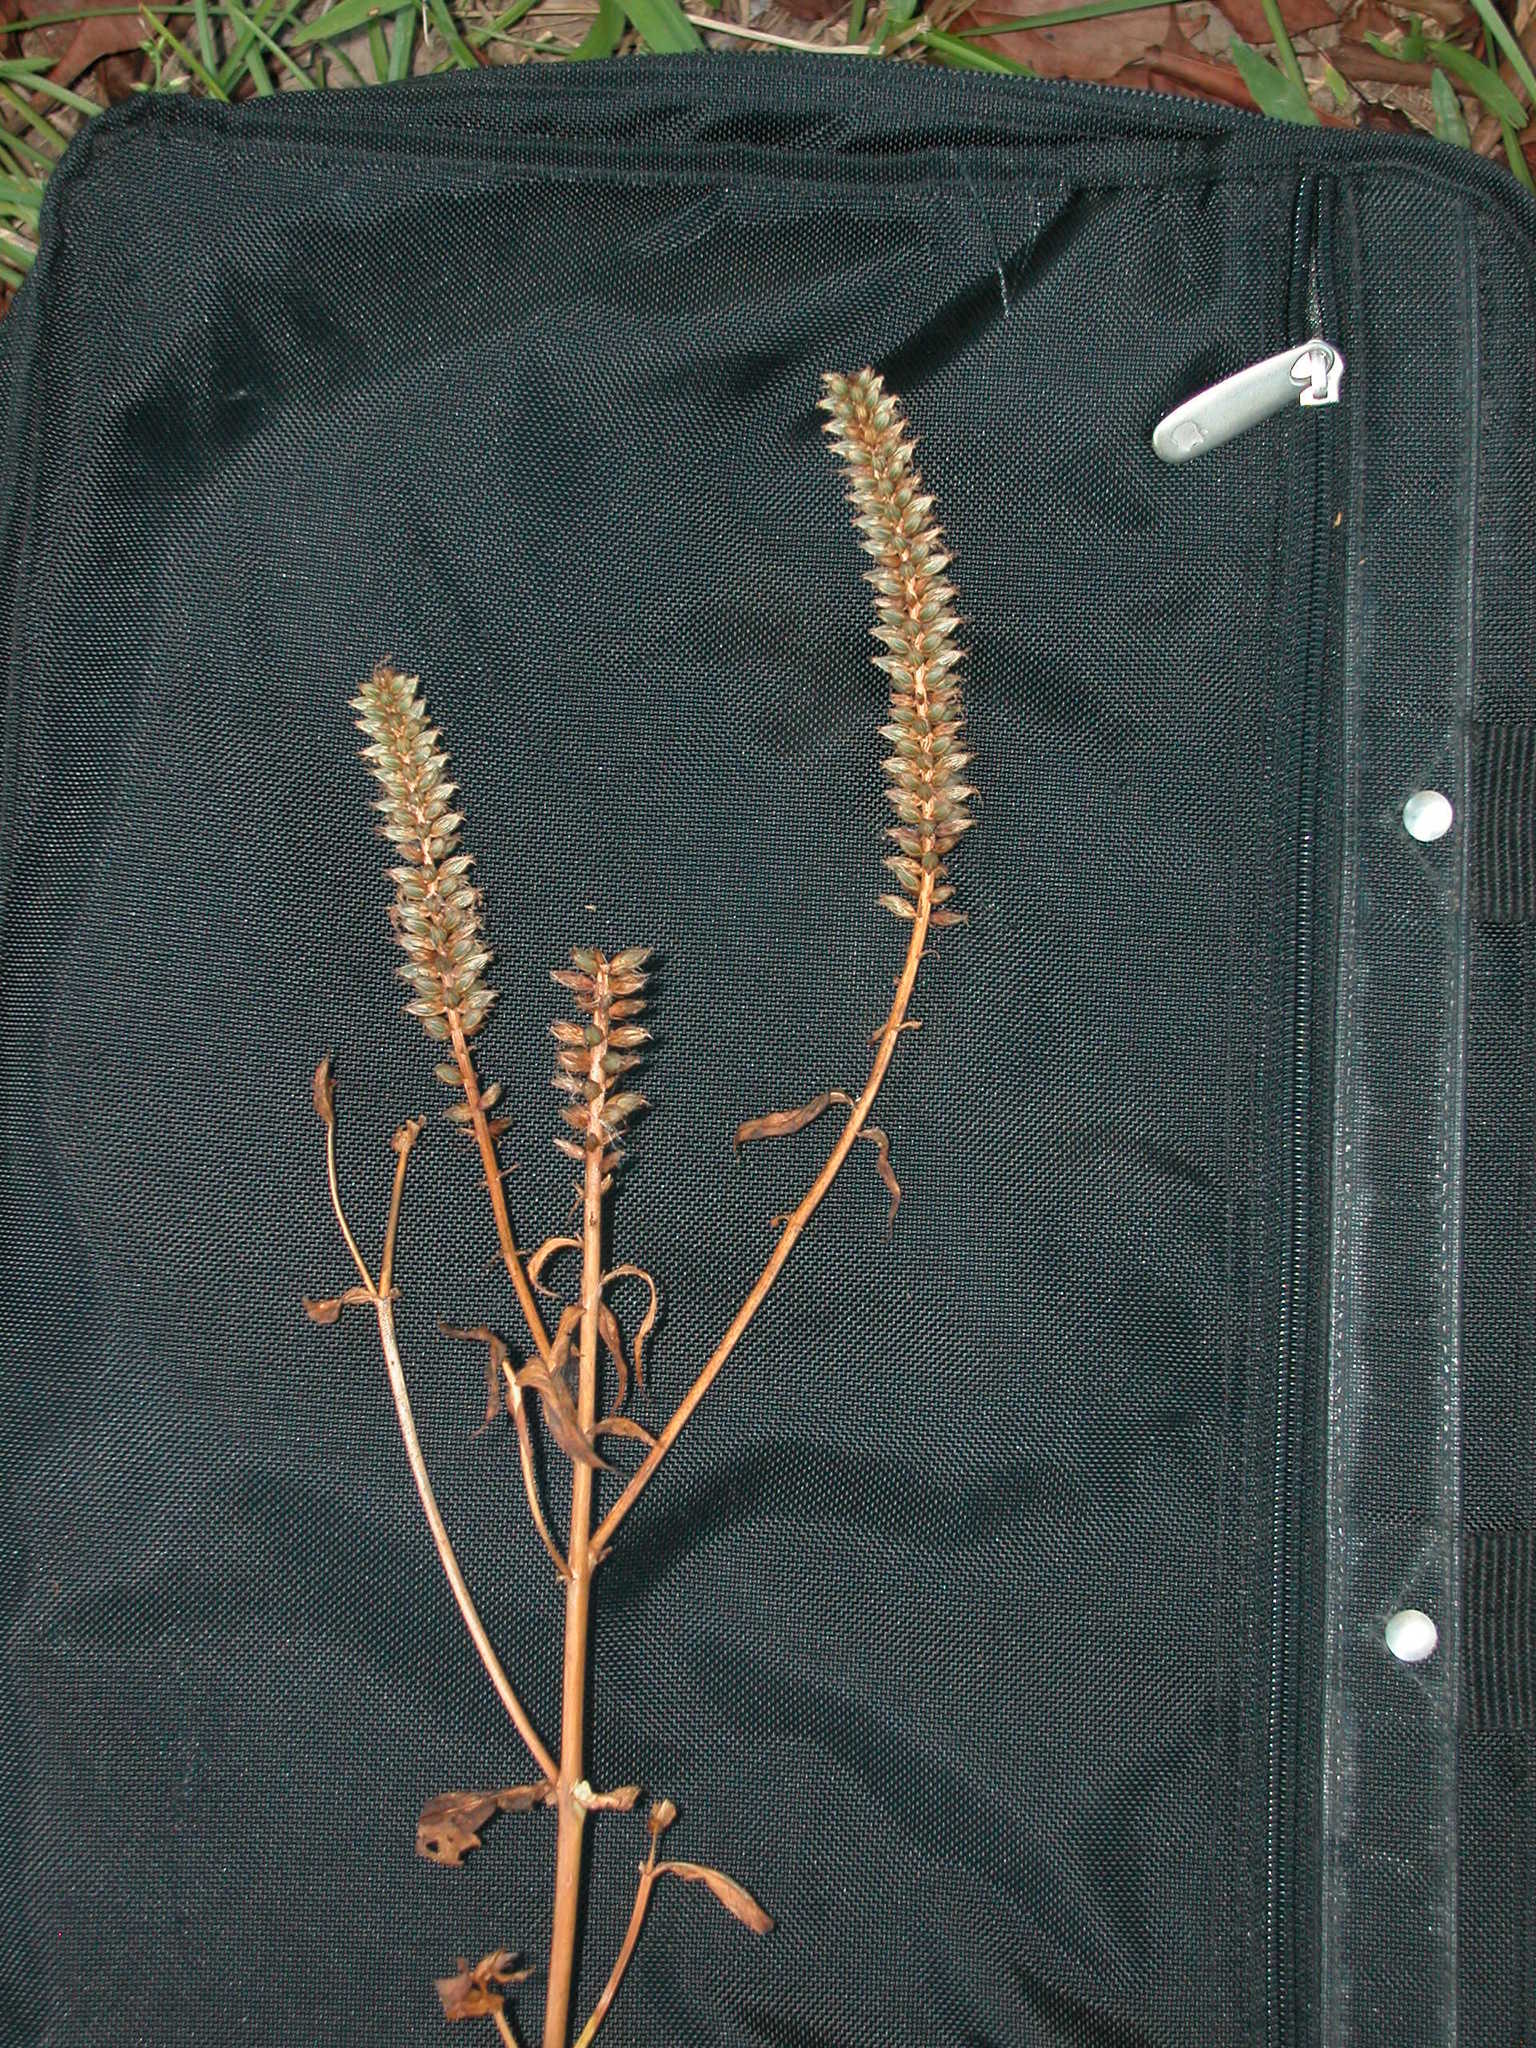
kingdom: Plantae
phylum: Tracheophyta
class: Magnoliopsida
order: Gentianales
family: Gentianaceae
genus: Coutoubea
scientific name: Coutoubea spicata
